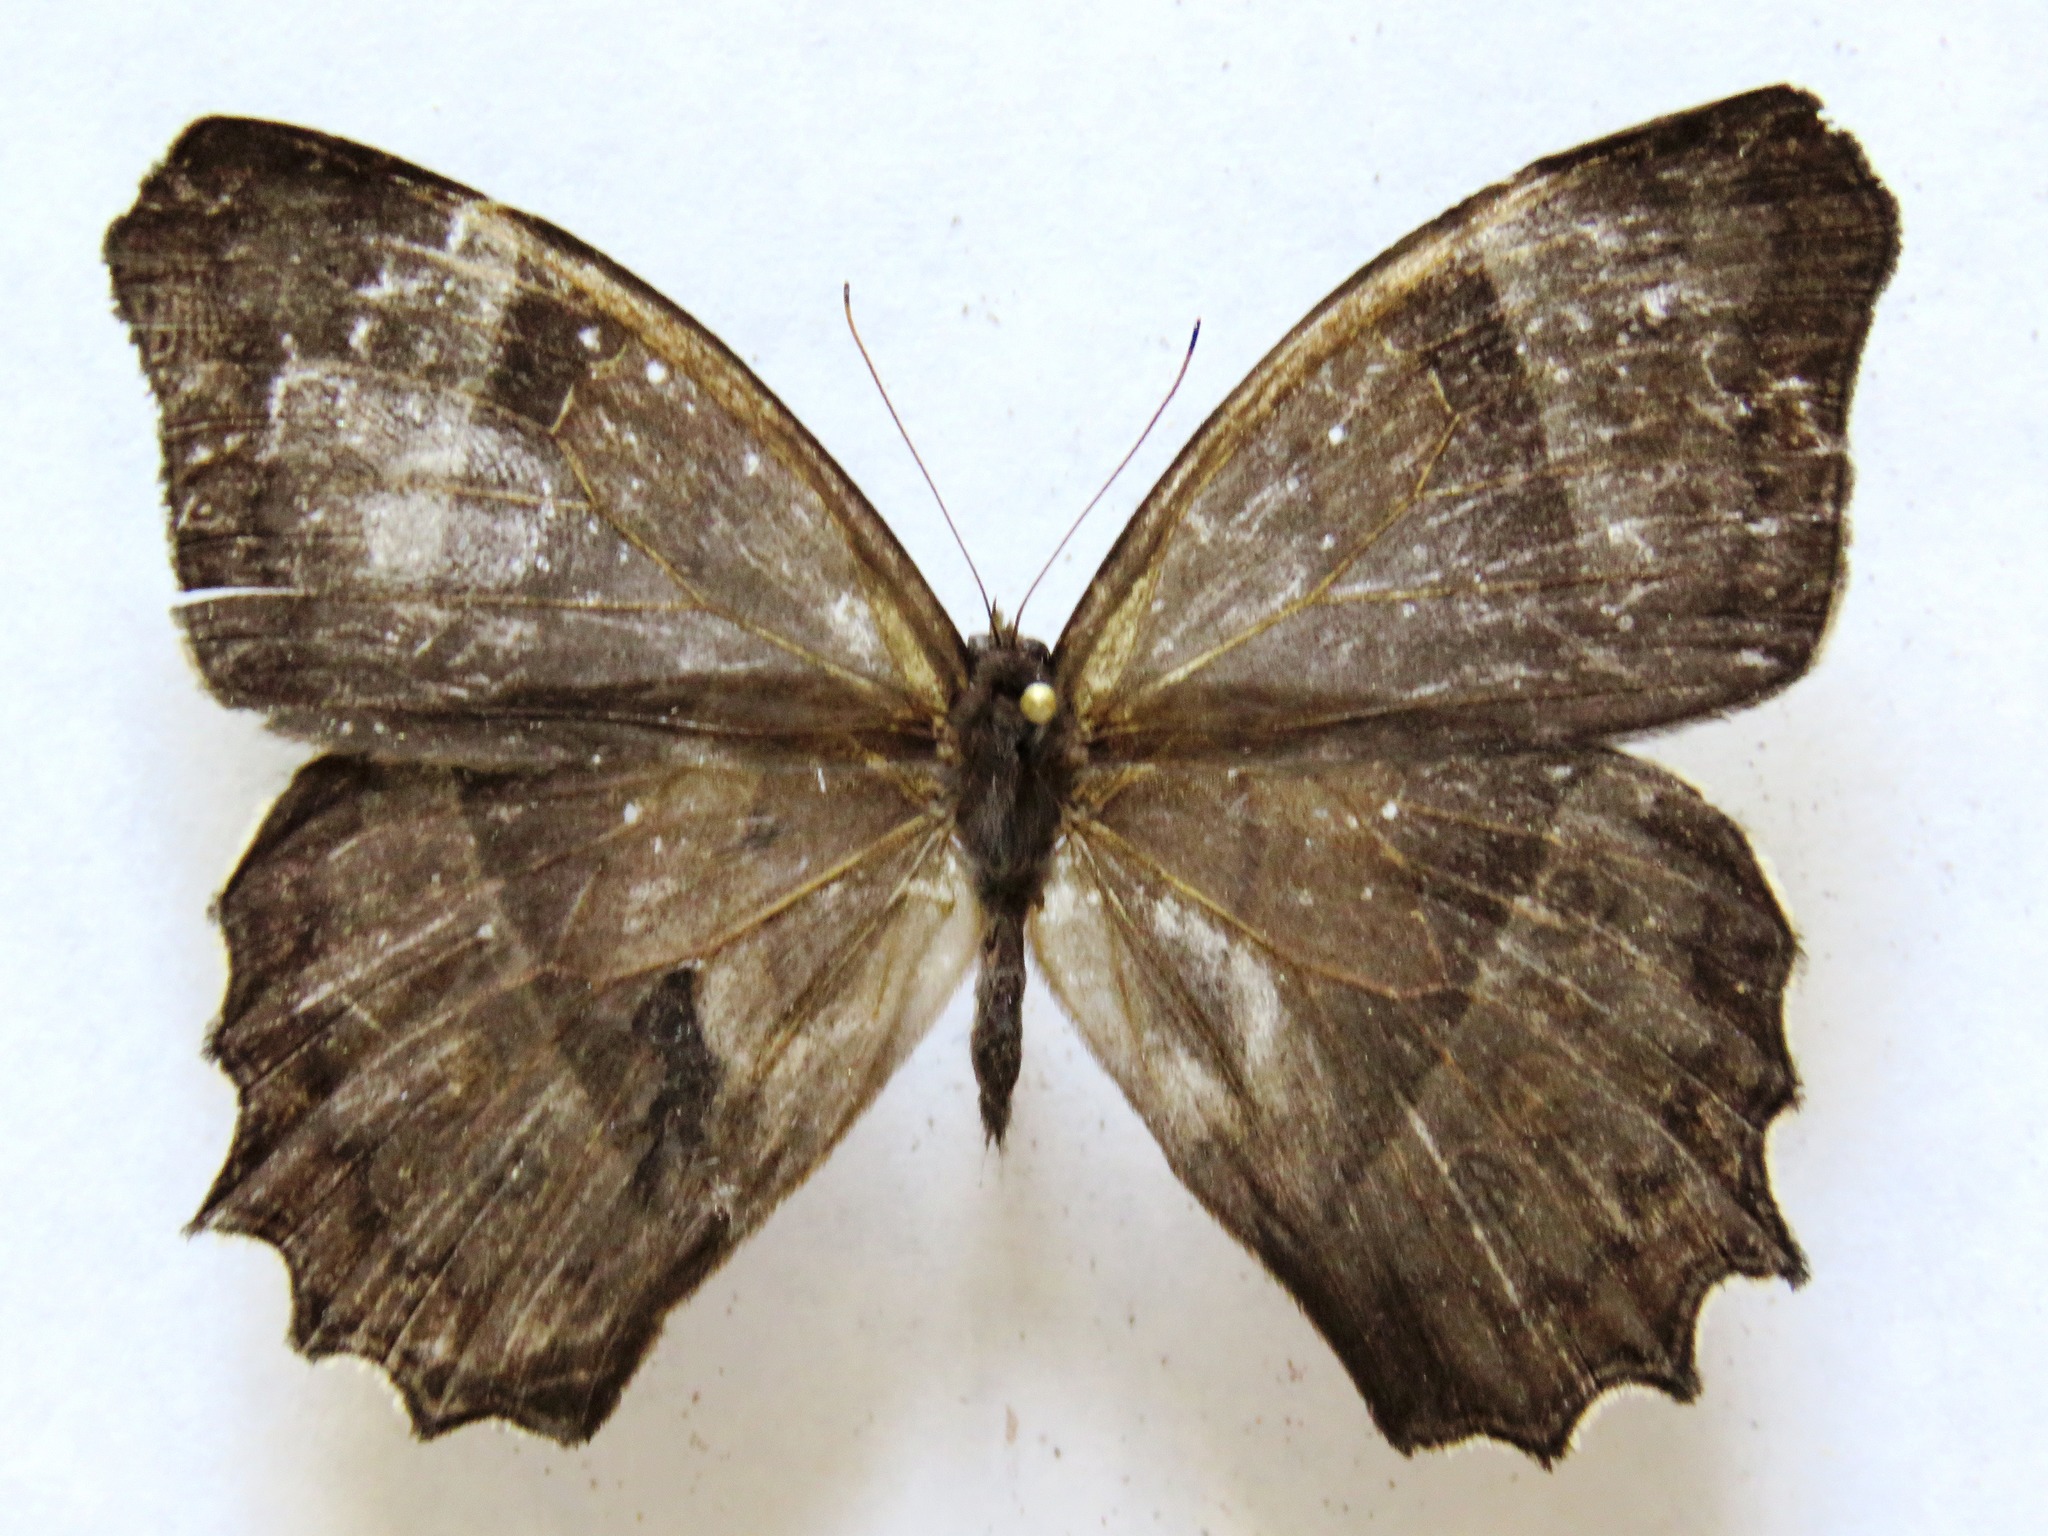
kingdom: Animalia
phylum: Arthropoda
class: Insecta
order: Lepidoptera
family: Nymphalidae
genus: Taygetis
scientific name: Taygetis andromeda
